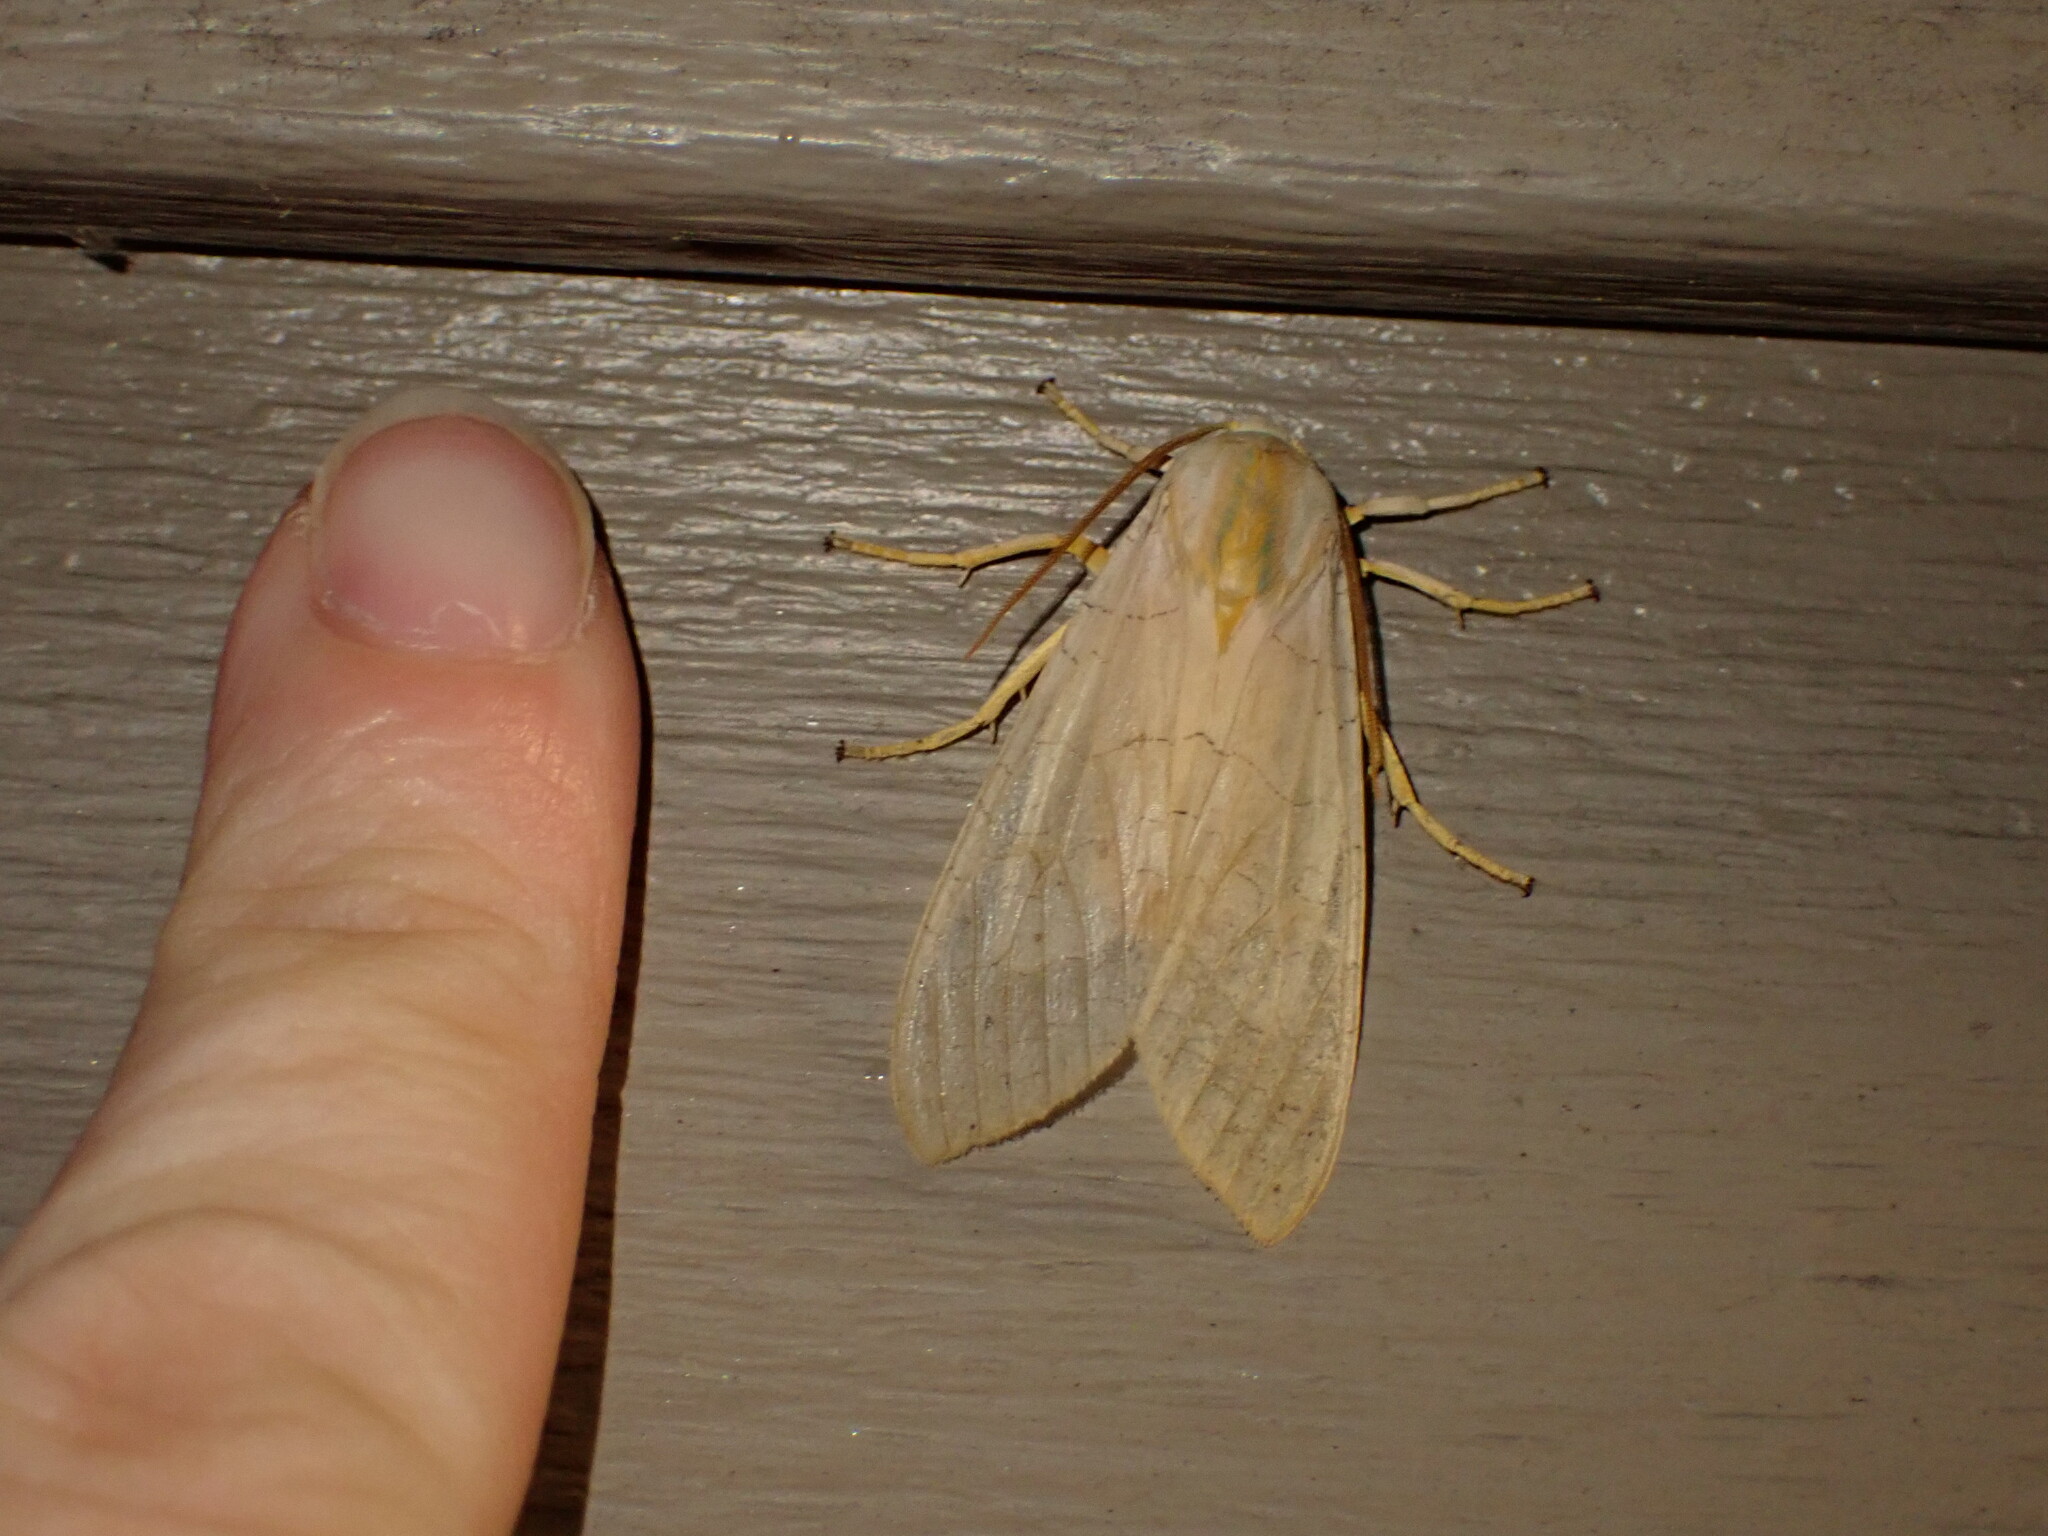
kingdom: Animalia
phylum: Arthropoda
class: Insecta
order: Lepidoptera
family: Erebidae
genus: Halysidota
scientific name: Halysidota
